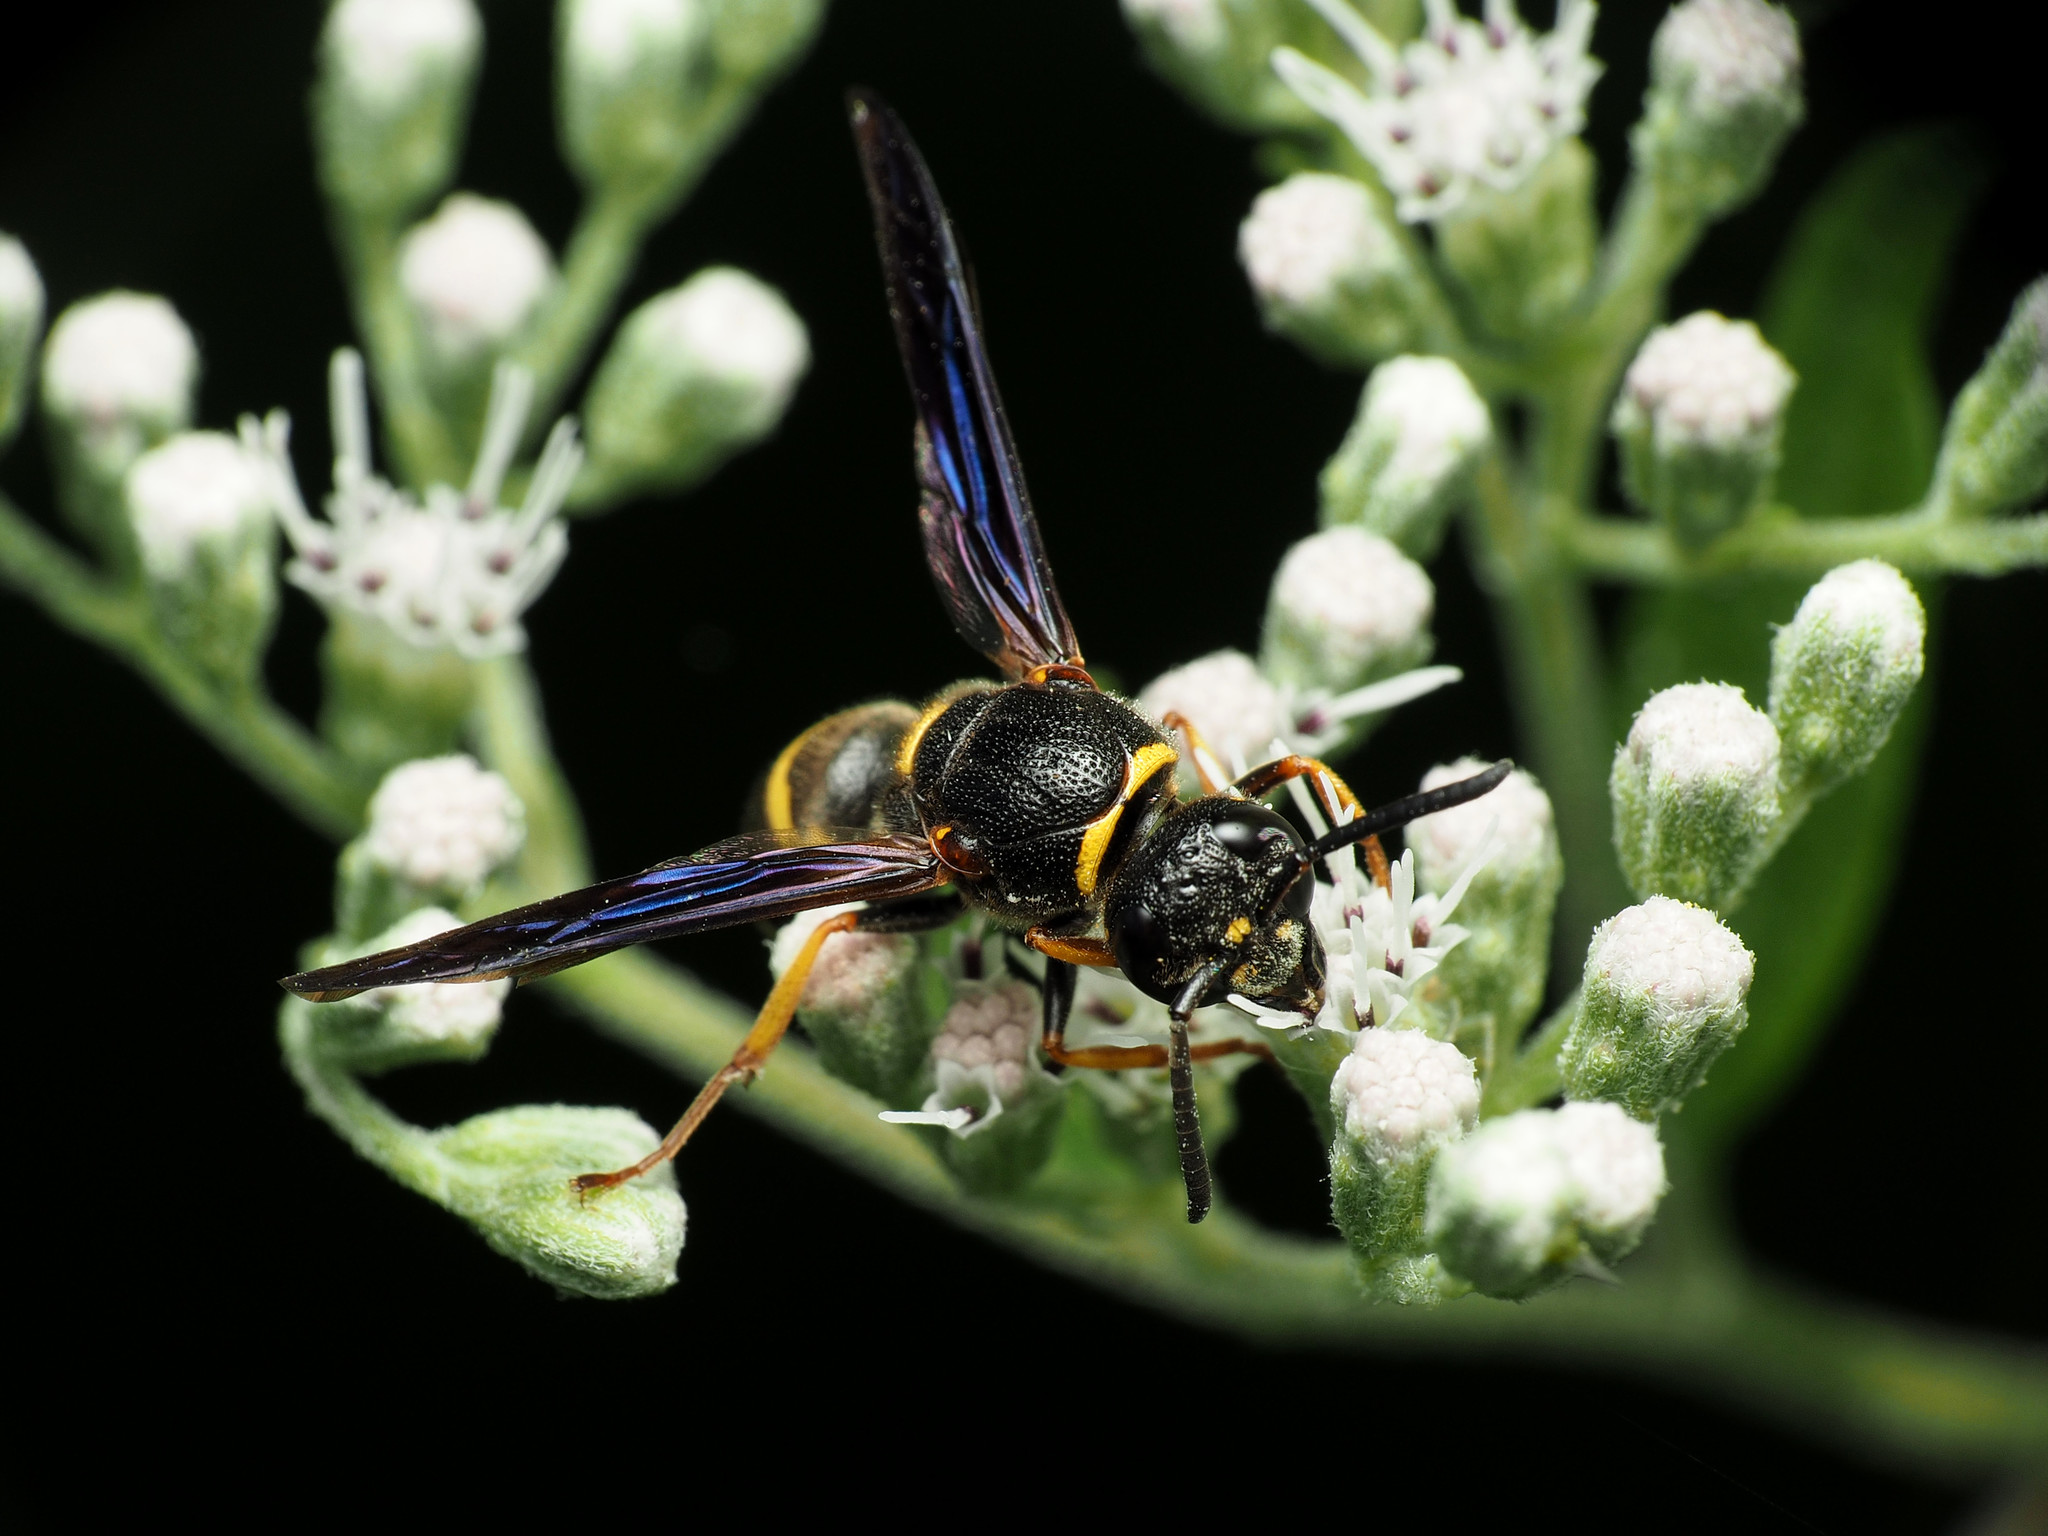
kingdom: Animalia
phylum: Arthropoda
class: Insecta
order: Hymenoptera
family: Eumenidae
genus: Euodynerus
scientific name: Euodynerus
